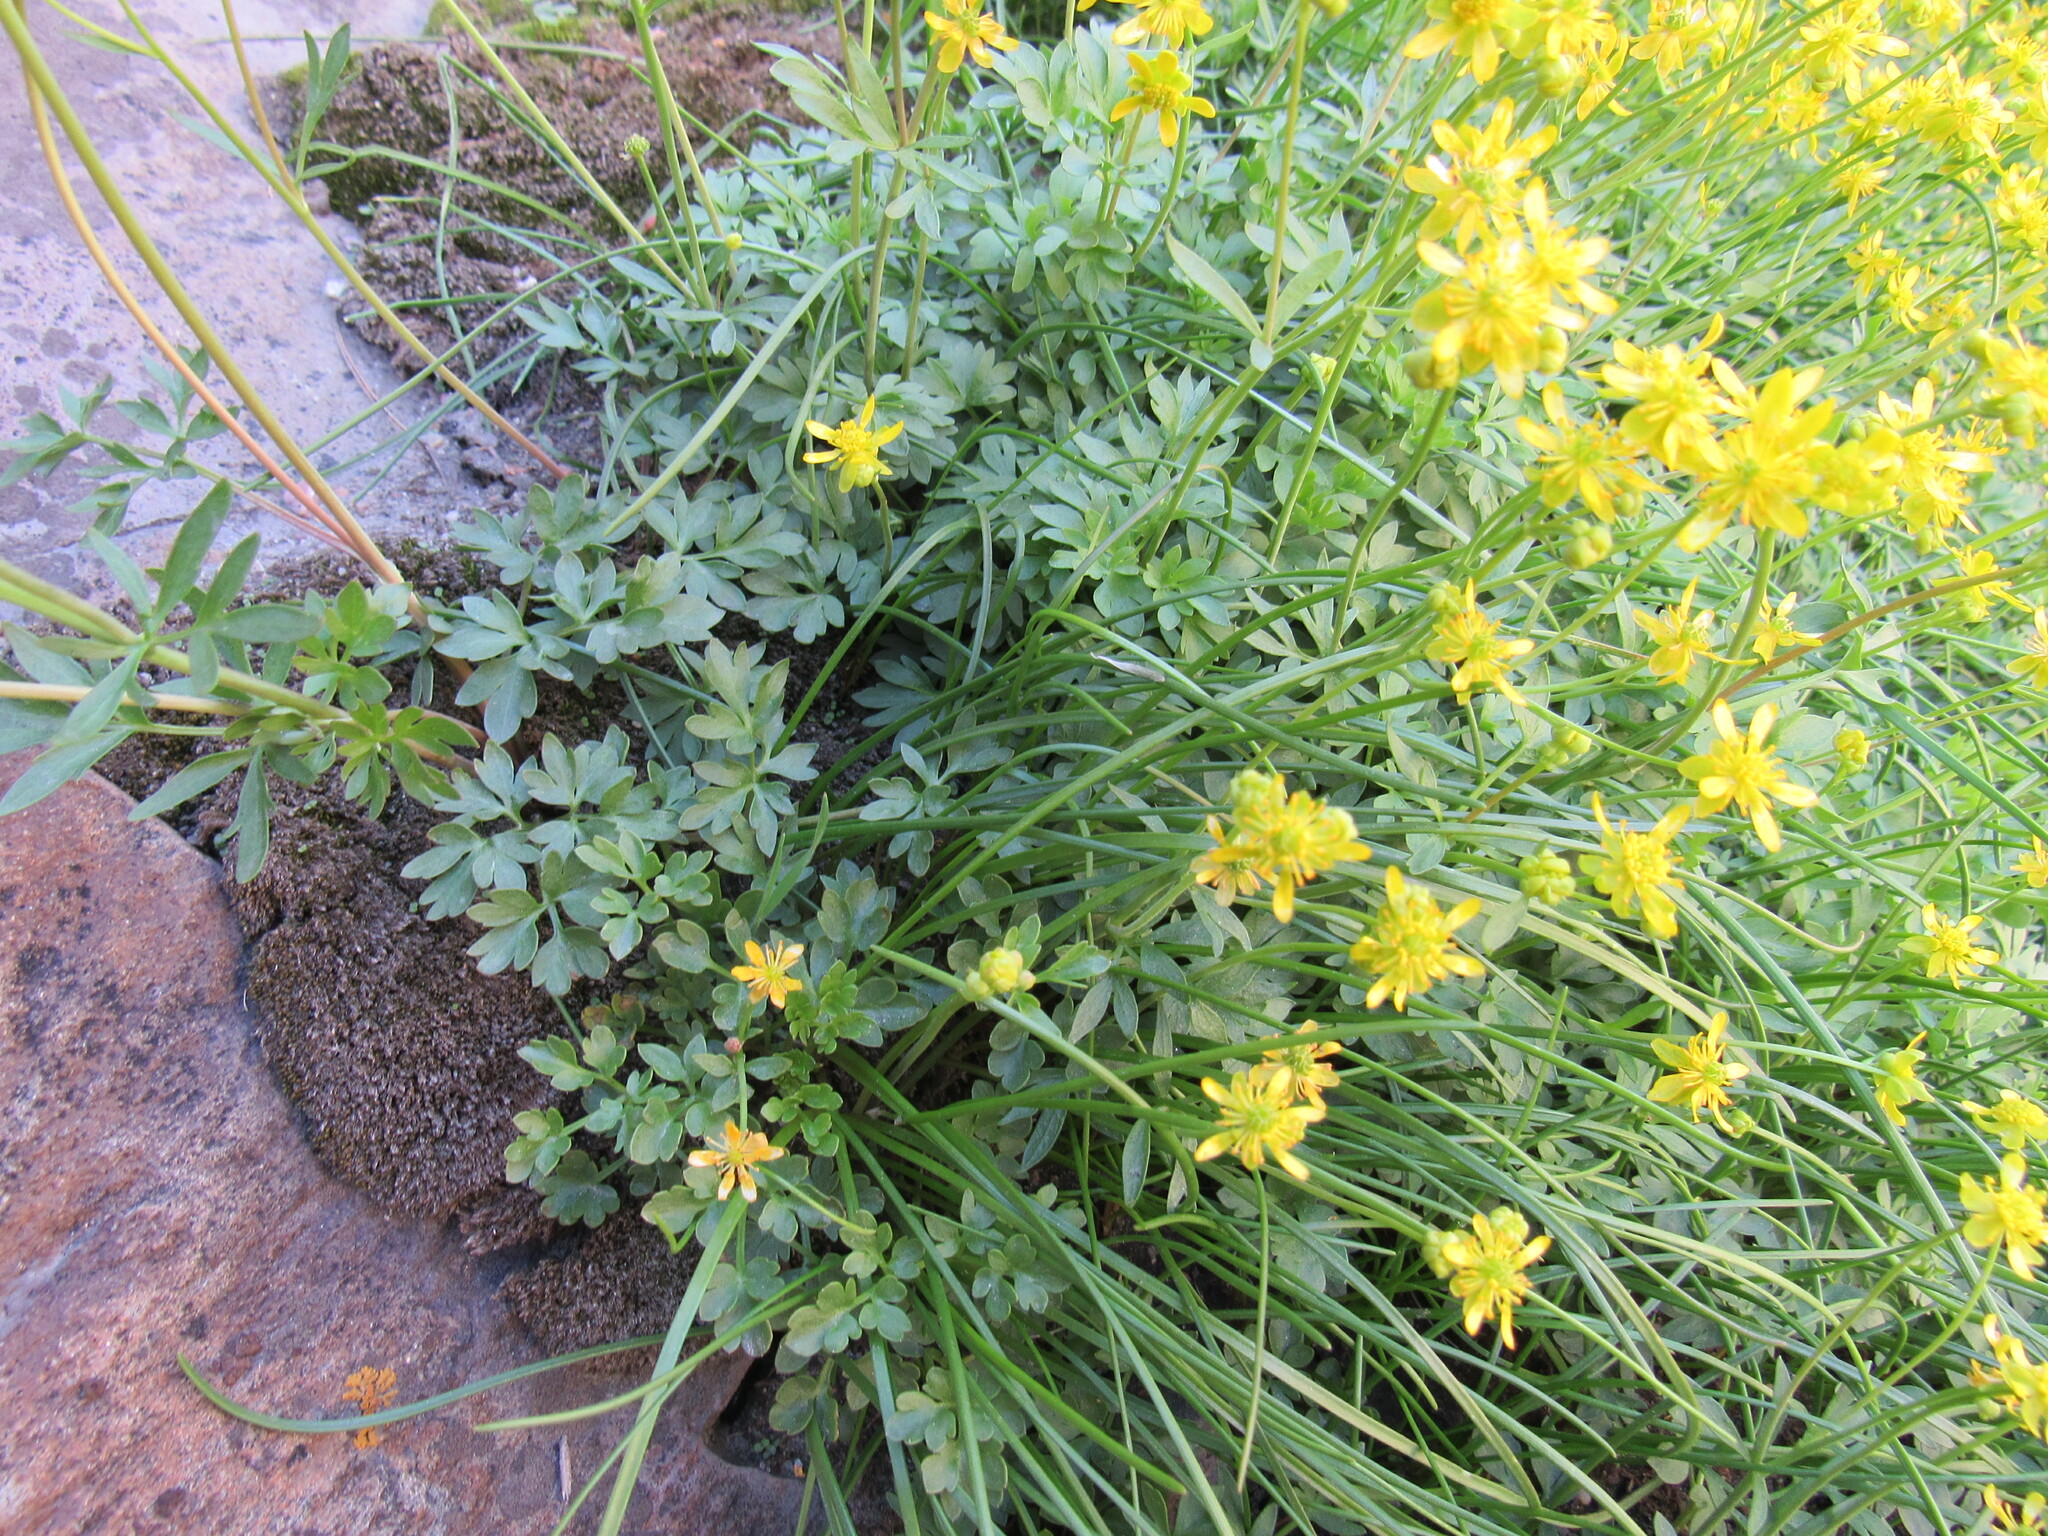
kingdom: Plantae
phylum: Tracheophyta
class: Magnoliopsida
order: Ranunculales
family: Ranunculaceae
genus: Cyrtorhyncha
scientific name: Cyrtorhyncha ranunculina
